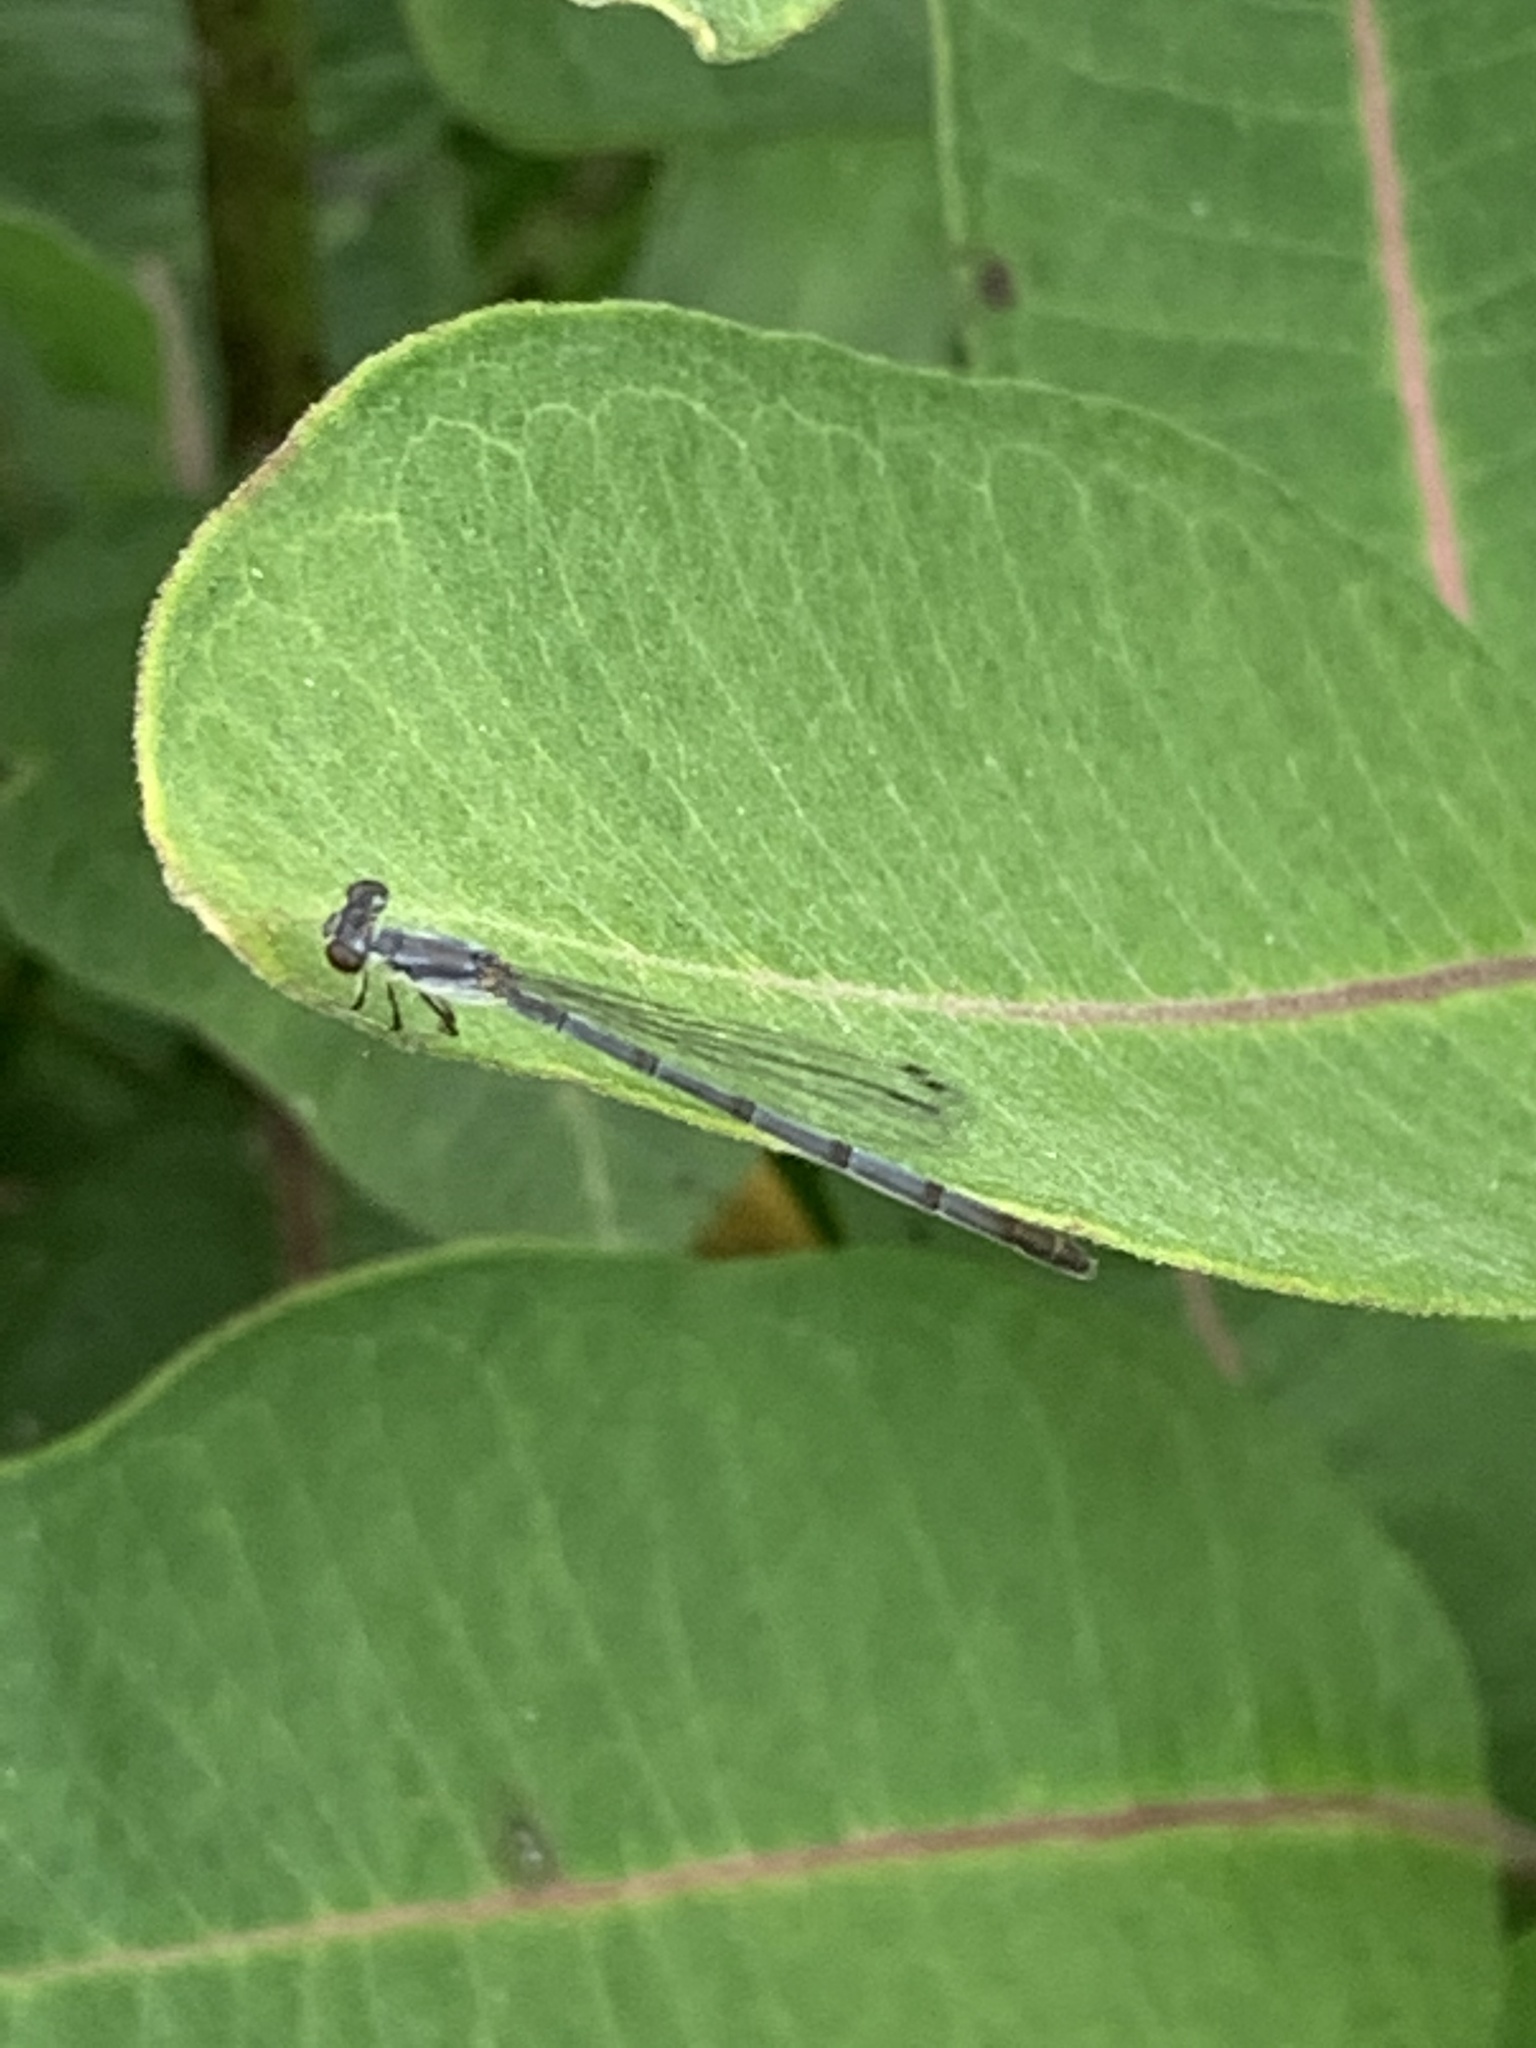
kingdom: Animalia
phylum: Arthropoda
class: Insecta
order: Odonata
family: Coenagrionidae
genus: Ischnura
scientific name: Ischnura posita
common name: Fragile forktail
